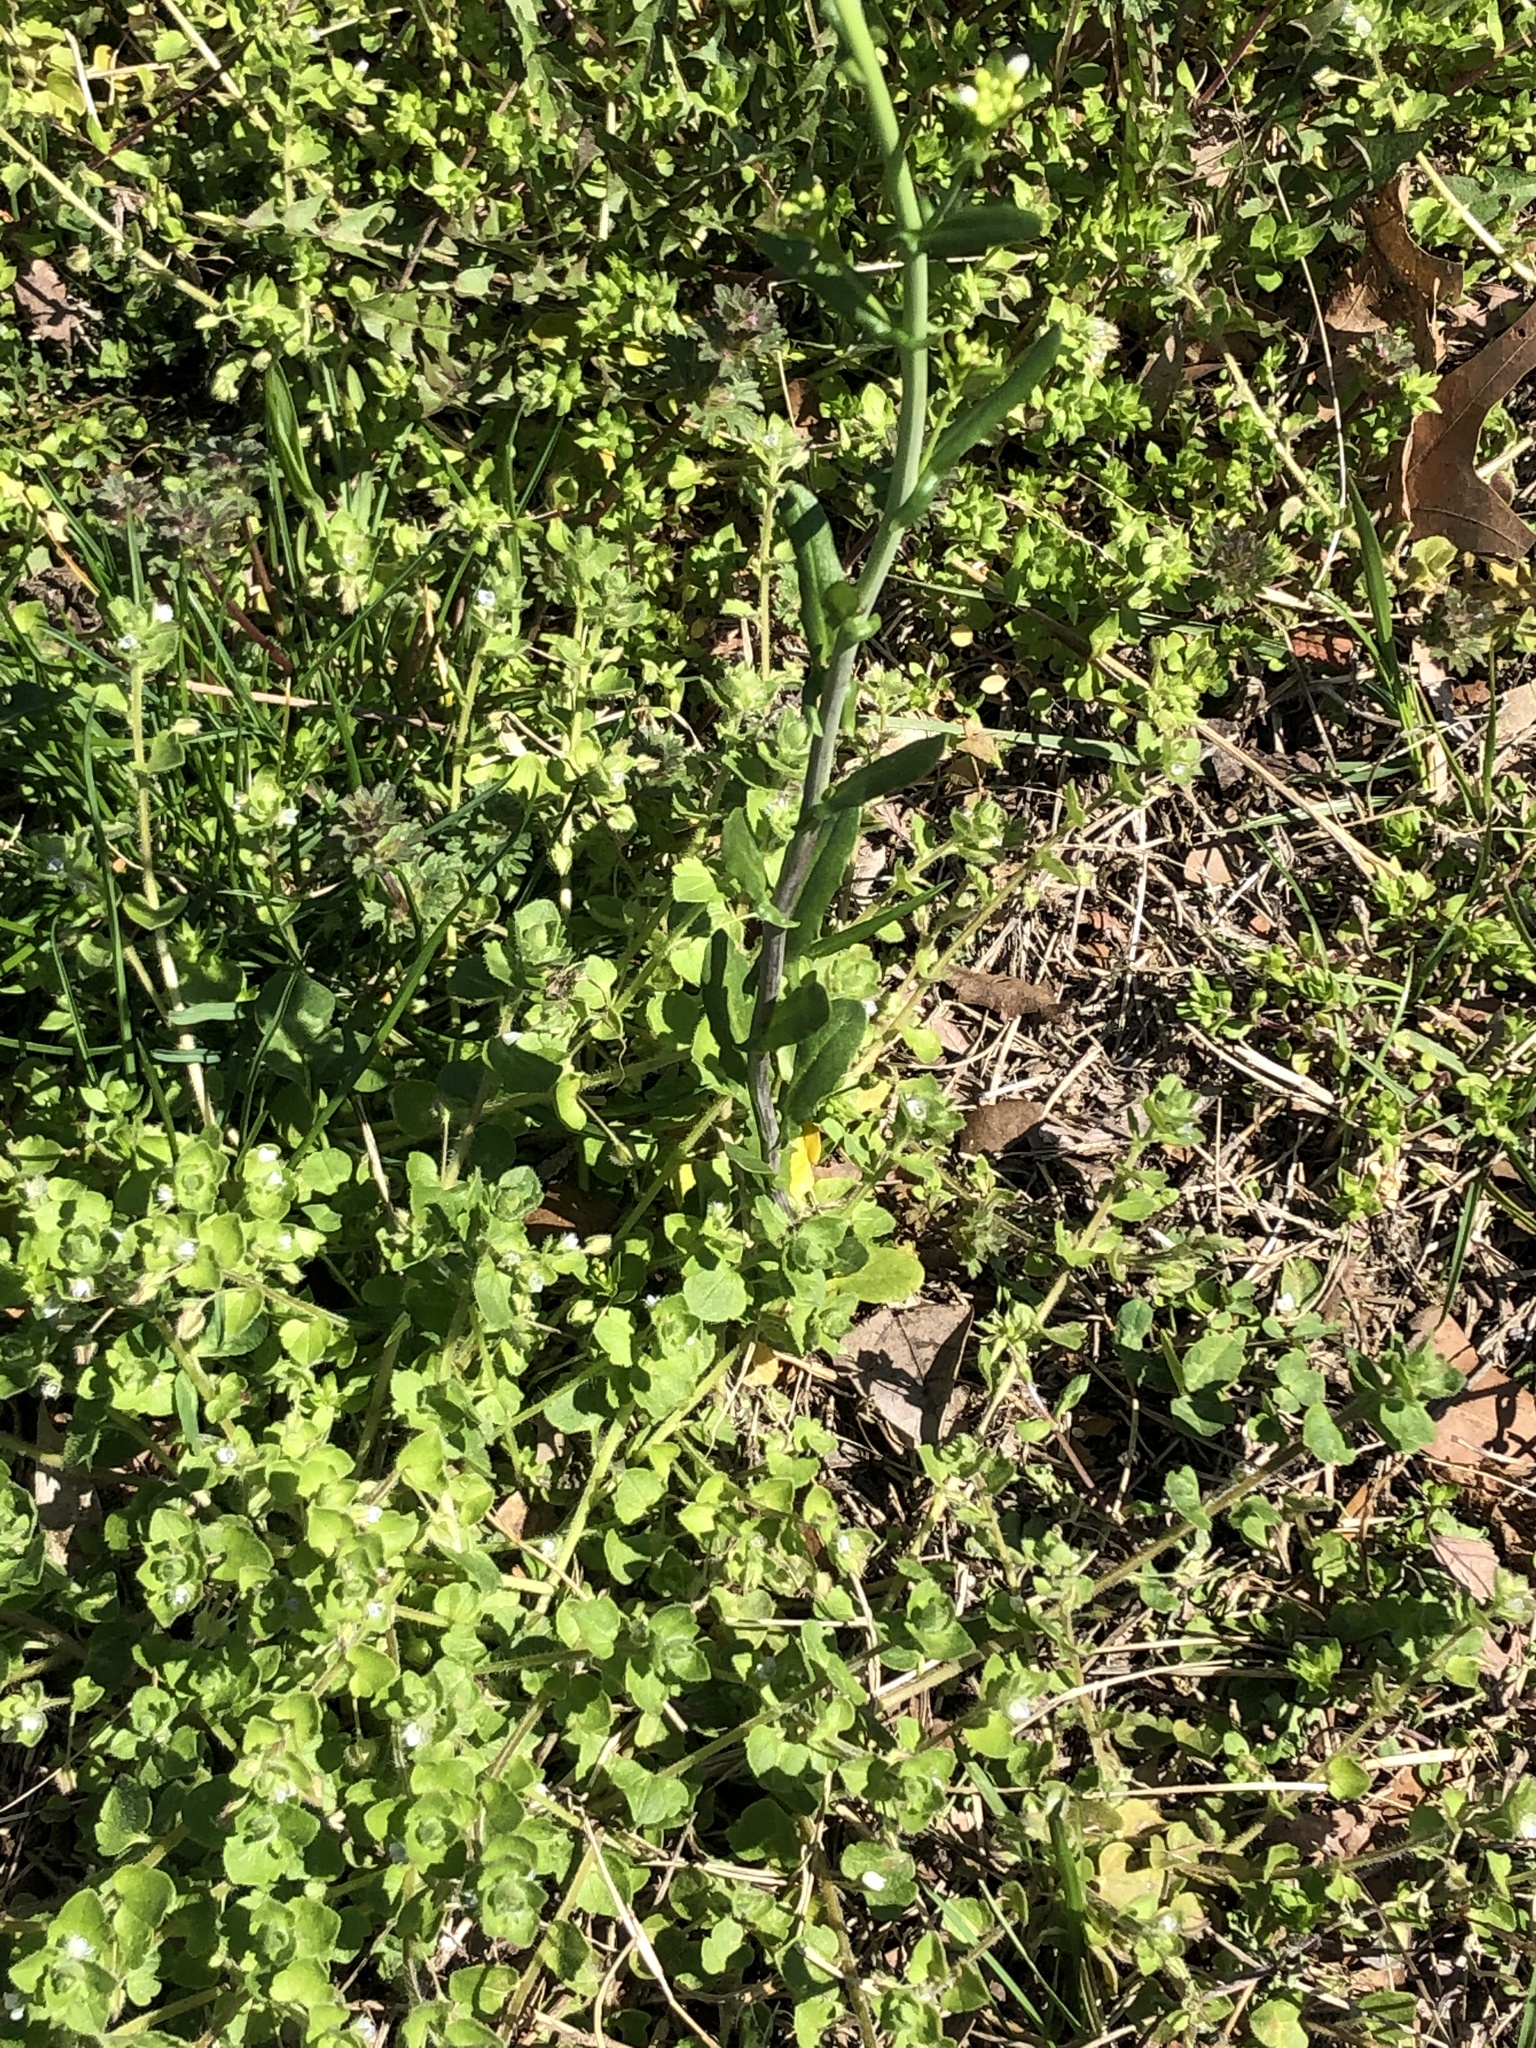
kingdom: Plantae
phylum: Tracheophyta
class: Magnoliopsida
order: Brassicales
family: Brassicaceae
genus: Mummenhoffia
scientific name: Mummenhoffia alliacea
